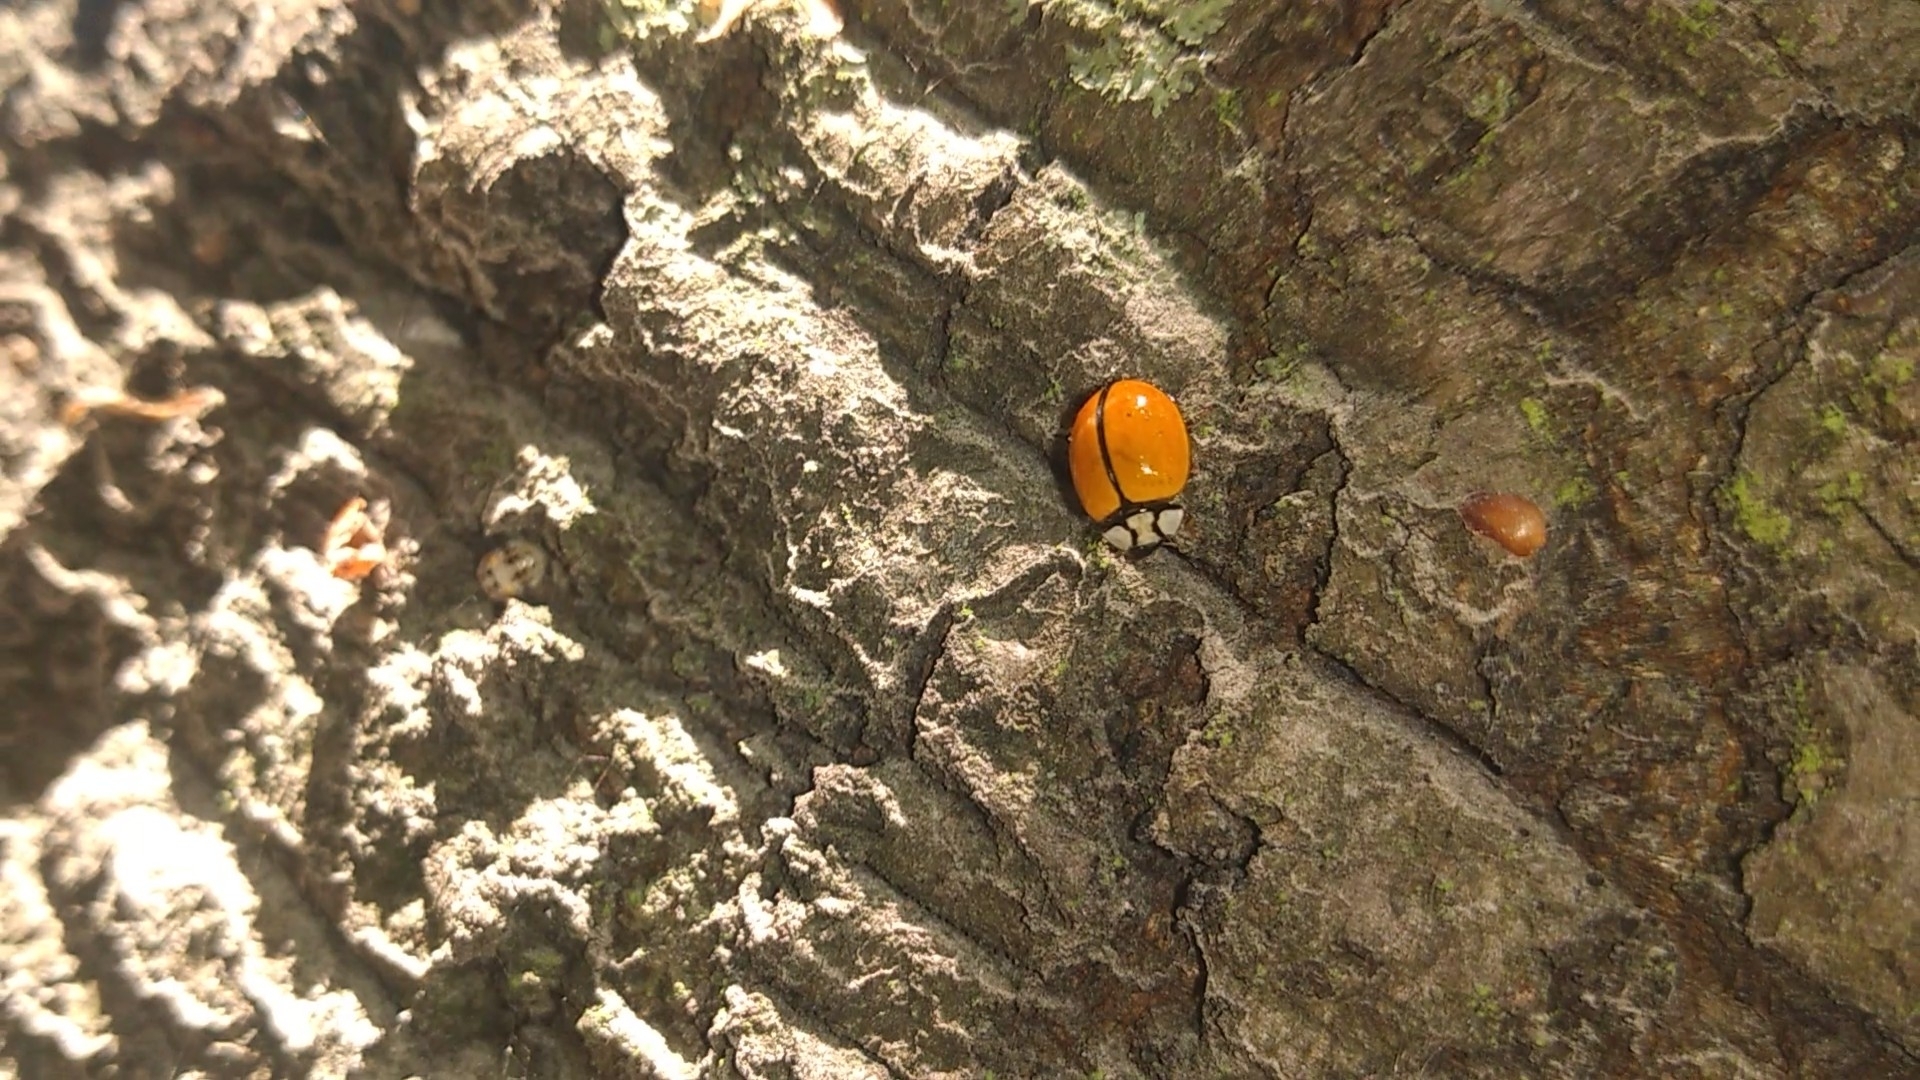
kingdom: Animalia
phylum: Arthropoda
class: Insecta
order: Coleoptera
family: Coccinellidae
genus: Coccinella
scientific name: Coccinella
